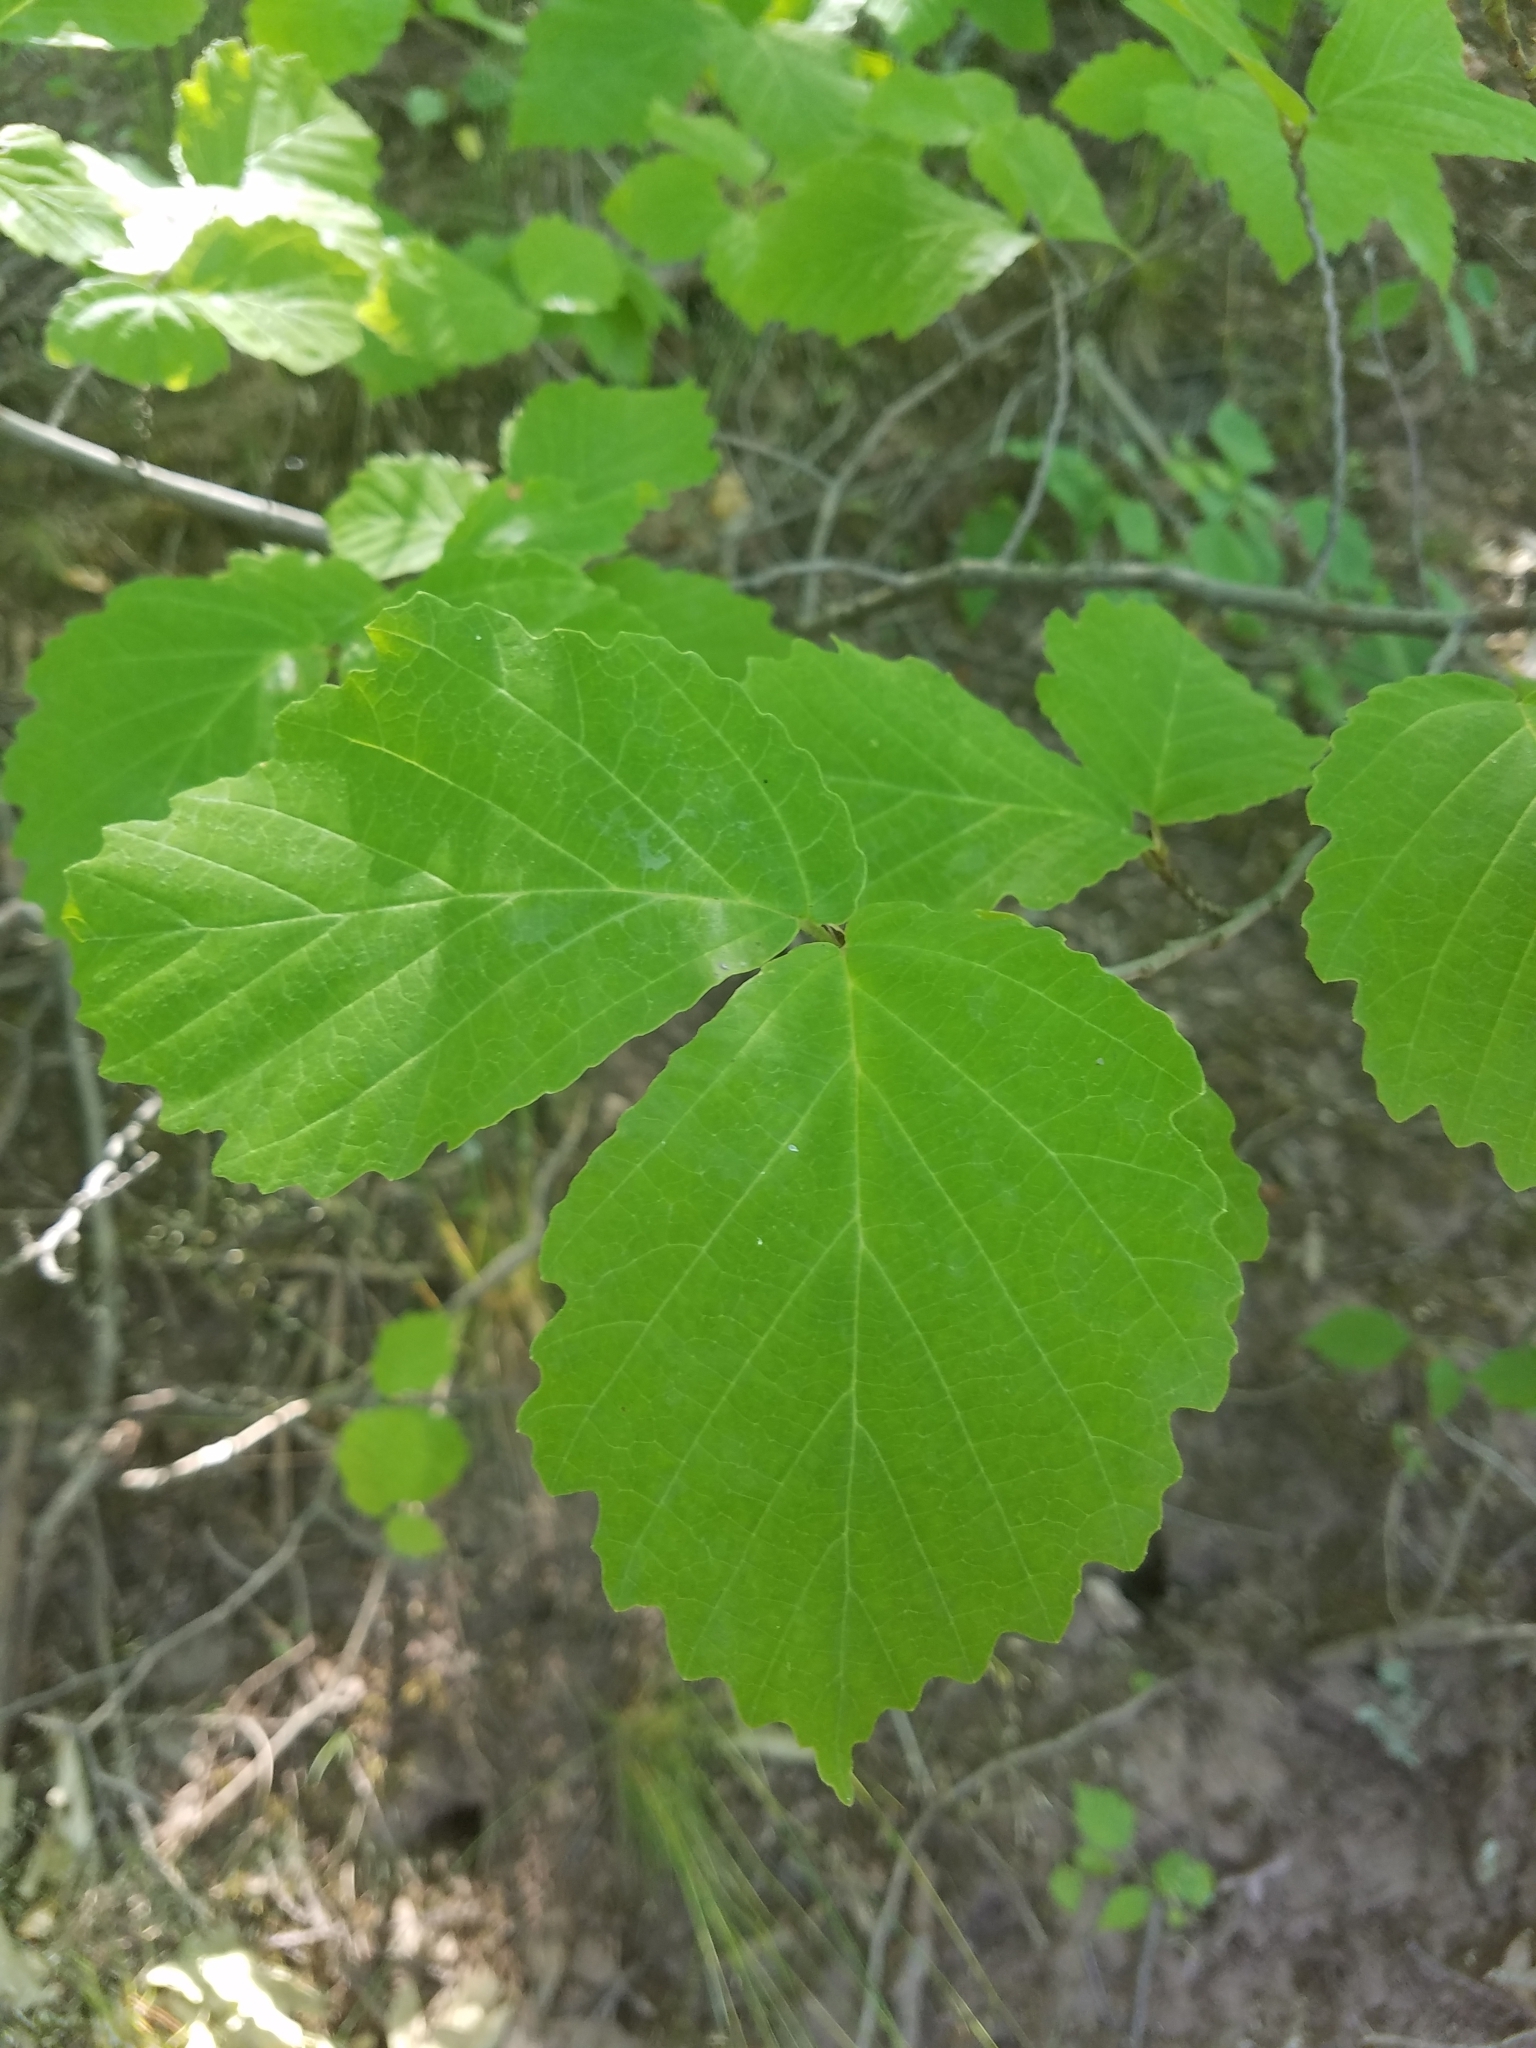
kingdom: Plantae
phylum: Tracheophyta
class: Magnoliopsida
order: Saxifragales
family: Hamamelidaceae
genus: Hamamelis
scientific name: Hamamelis virginiana
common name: Witch-hazel
